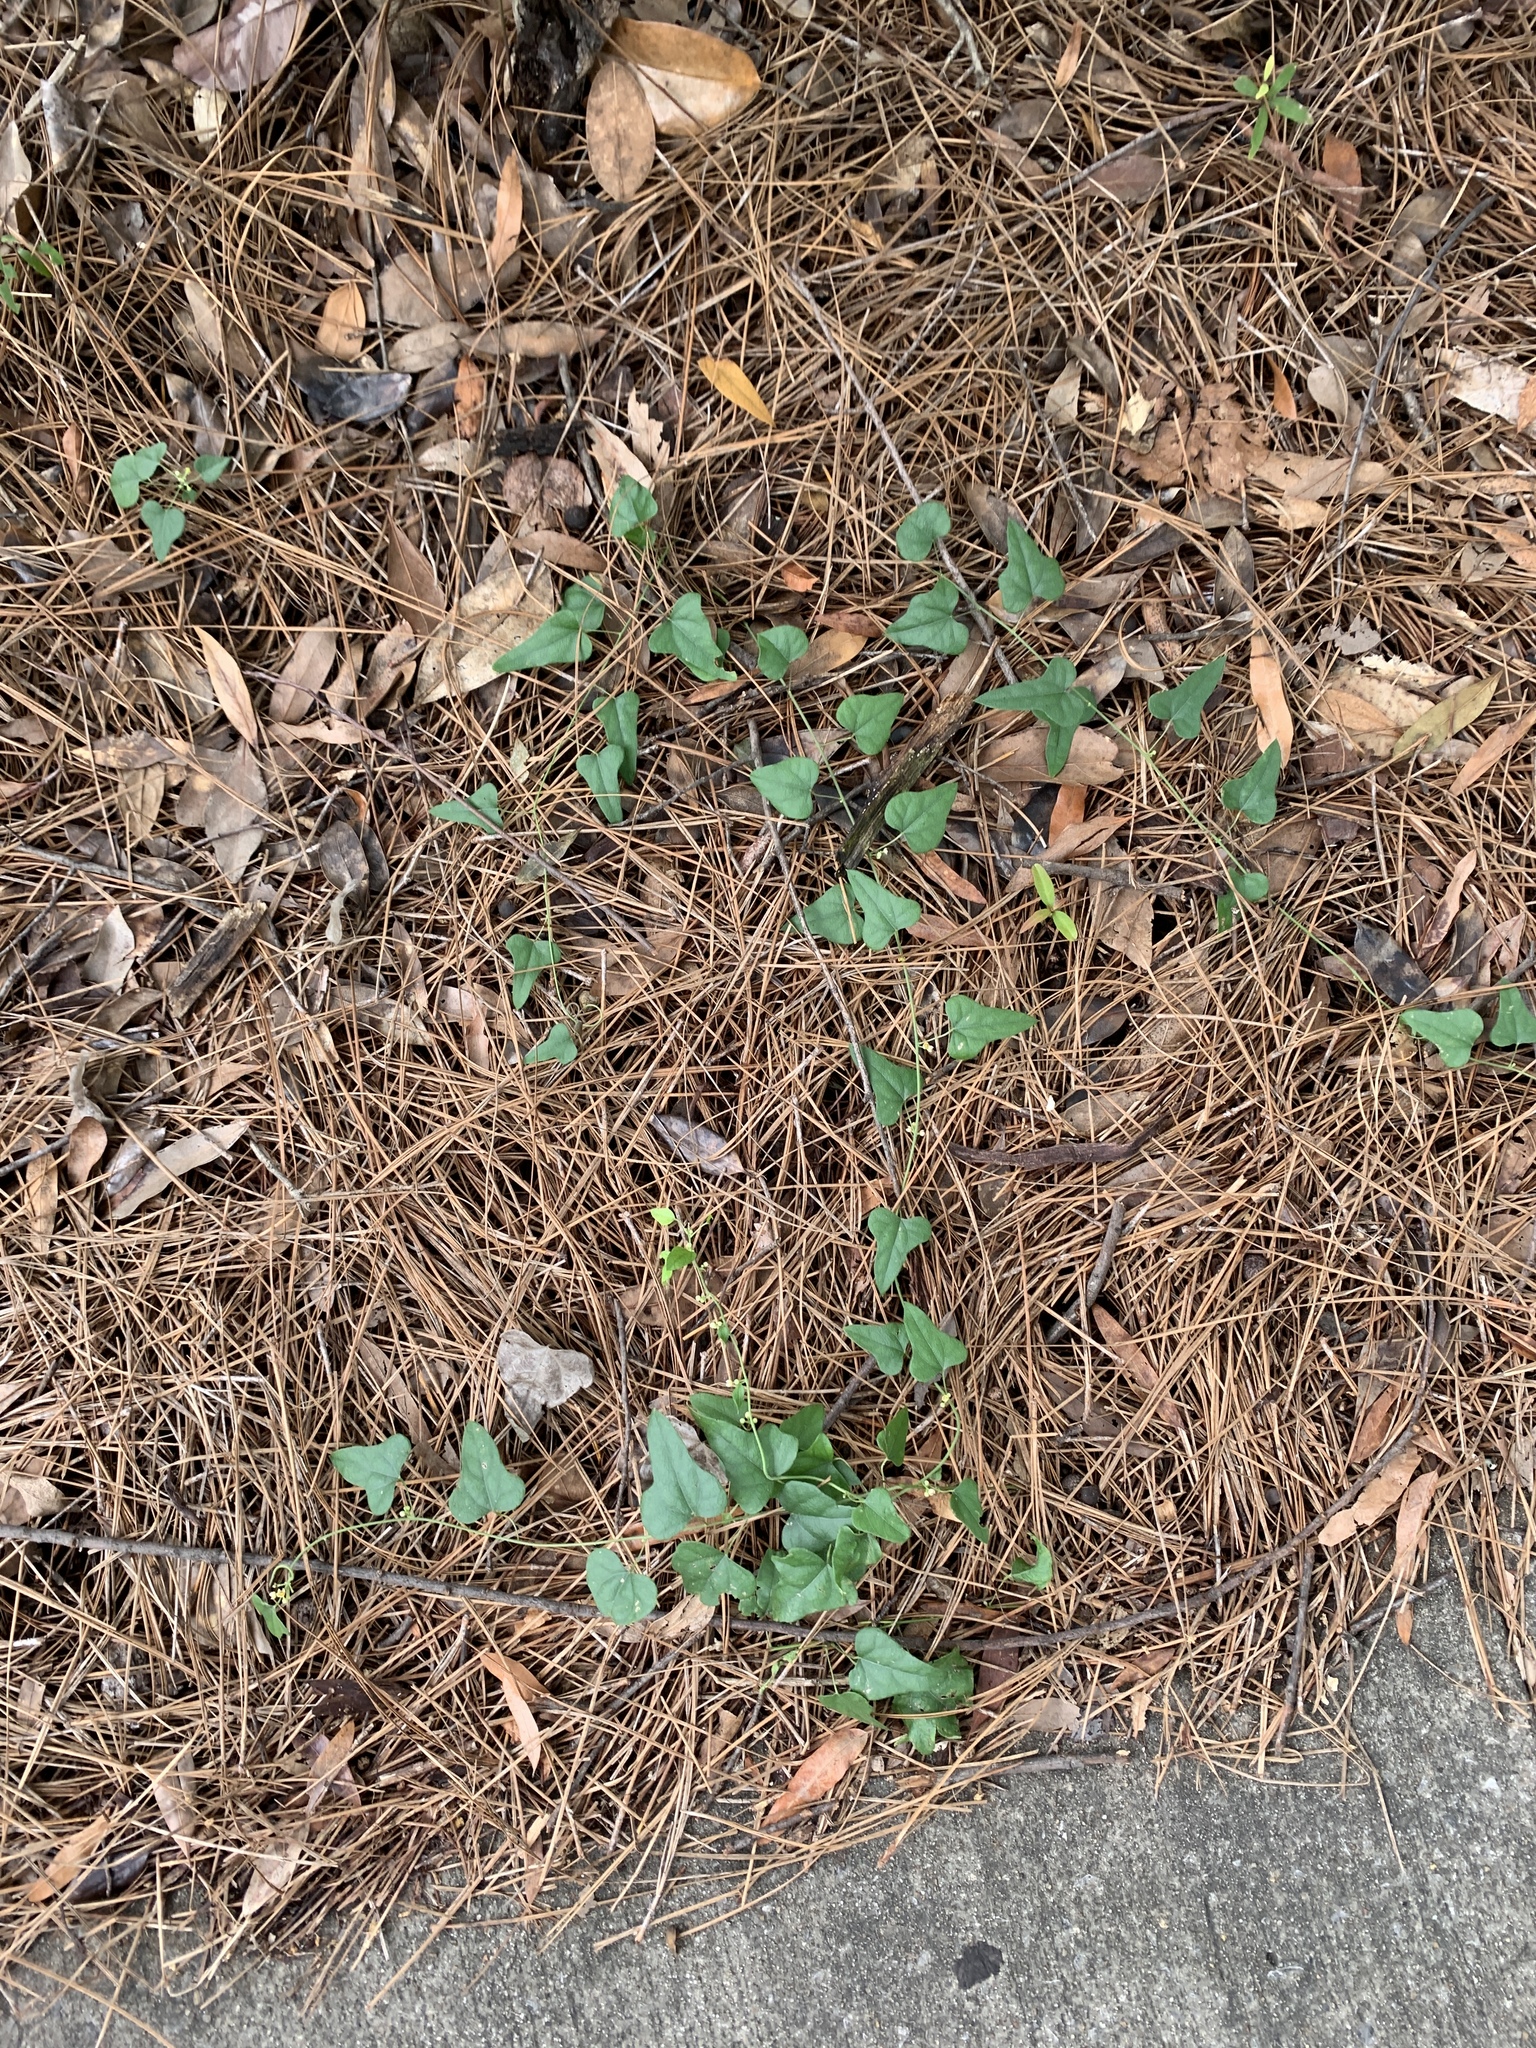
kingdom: Plantae
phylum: Tracheophyta
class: Magnoliopsida
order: Ranunculales
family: Menispermaceae
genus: Cocculus
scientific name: Cocculus carolinus
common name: Carolina moonseed
